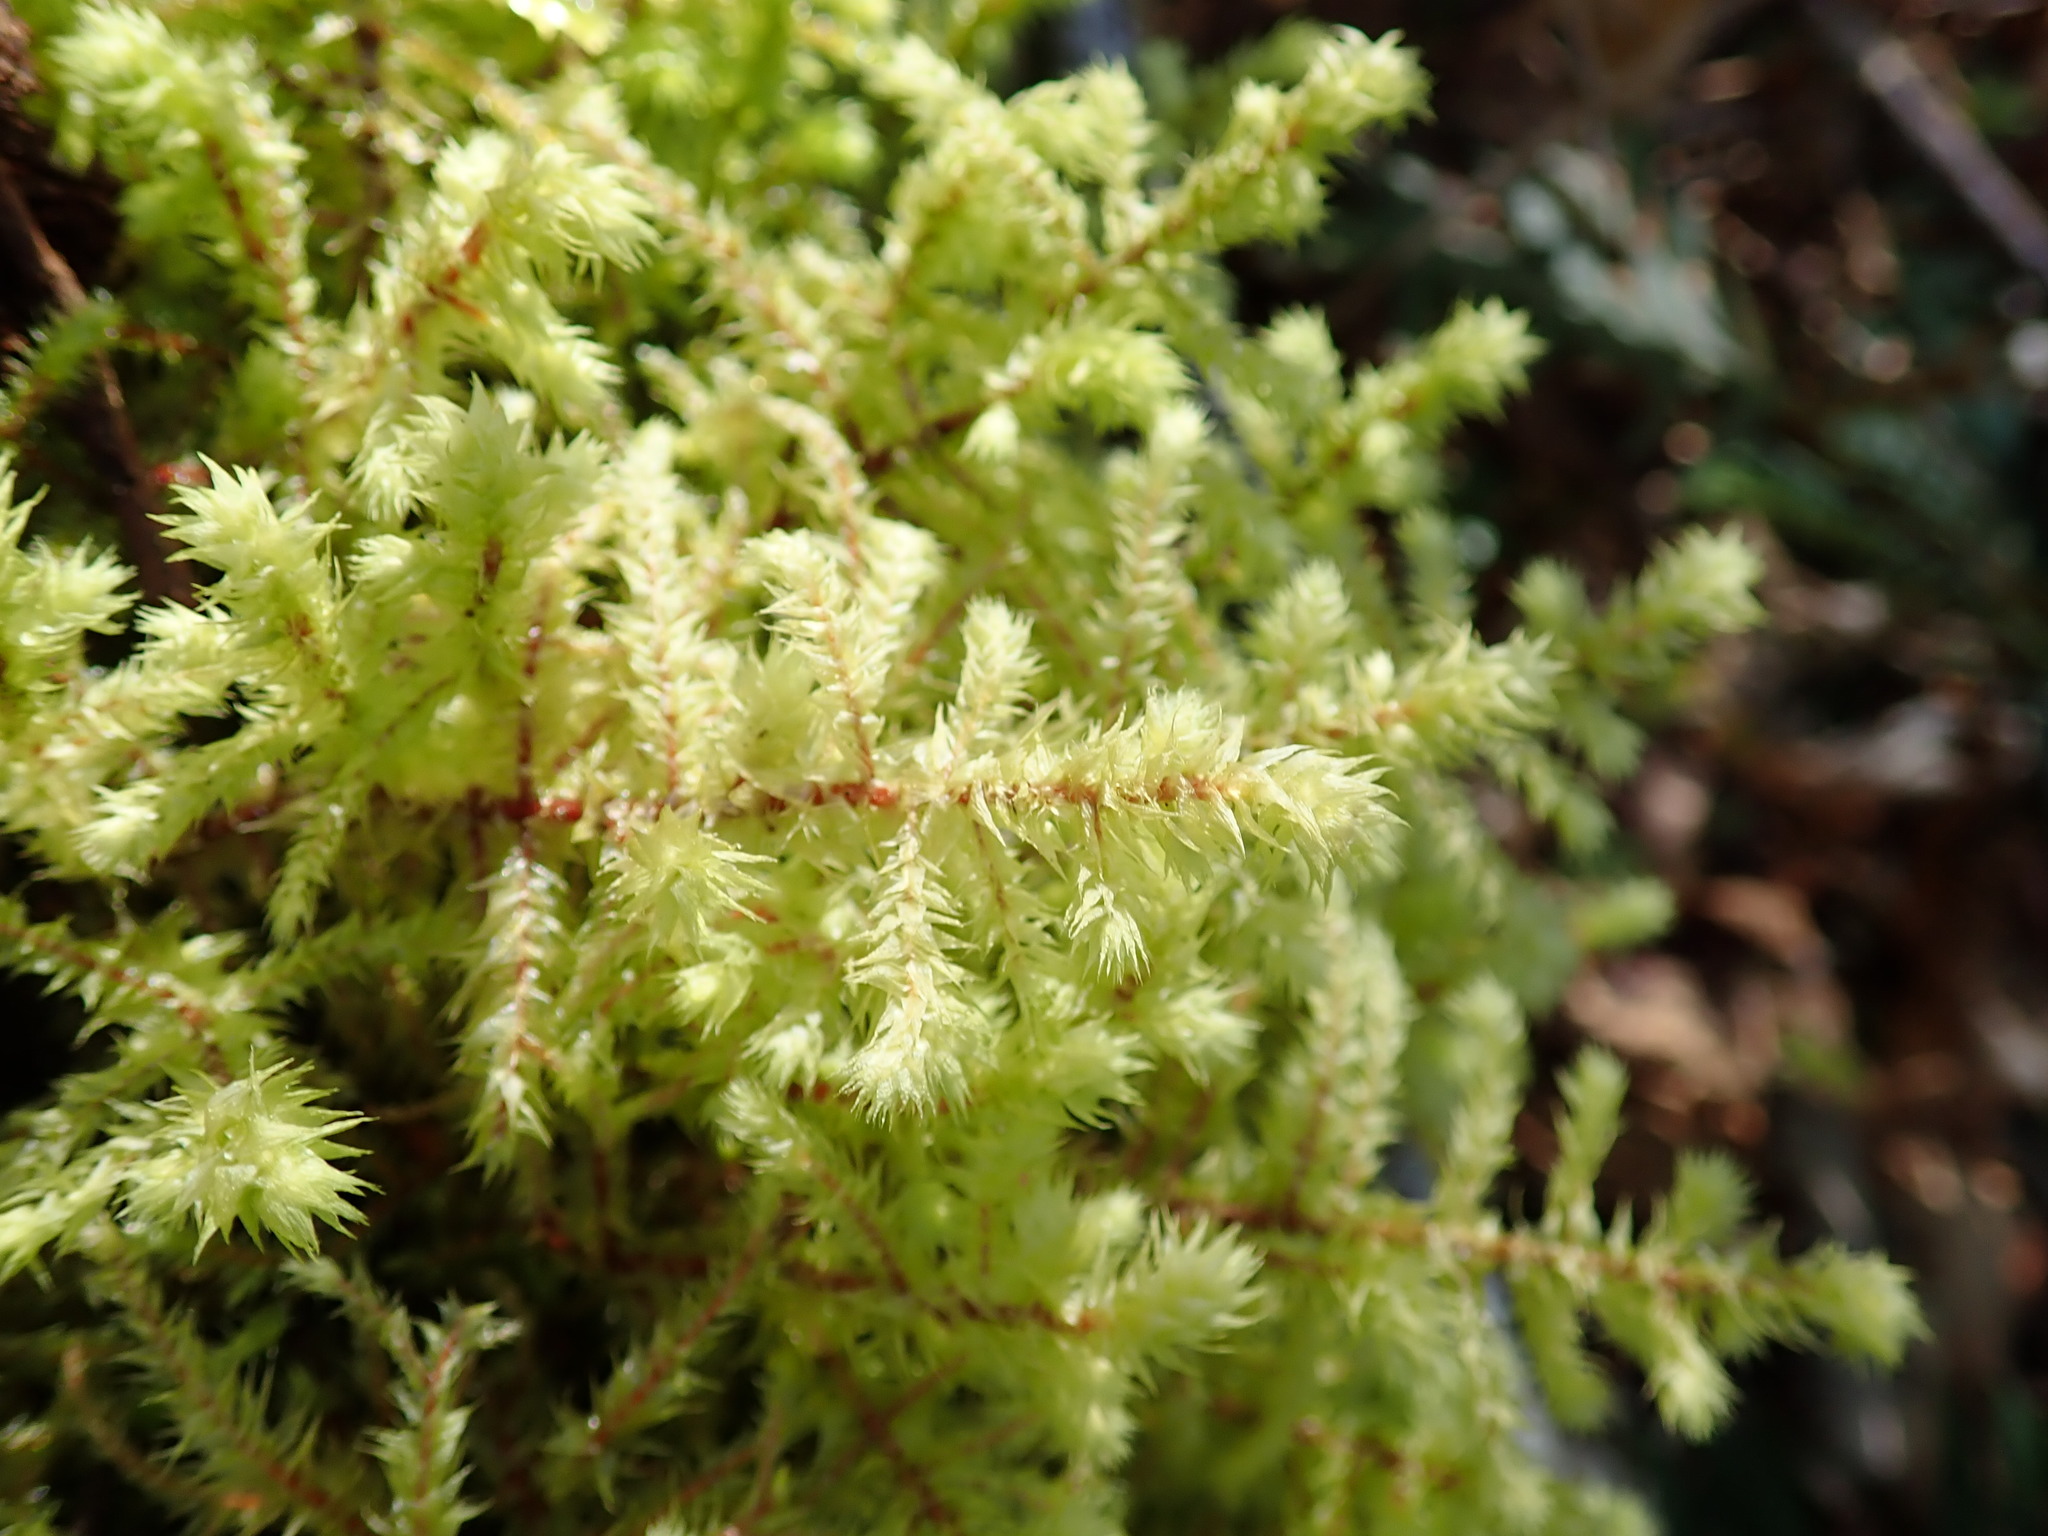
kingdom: Plantae
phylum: Bryophyta
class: Bryopsida
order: Hypnales
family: Hylocomiaceae
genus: Hylocomiadelphus
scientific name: Hylocomiadelphus triquetrus
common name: Rough goose neck moss
